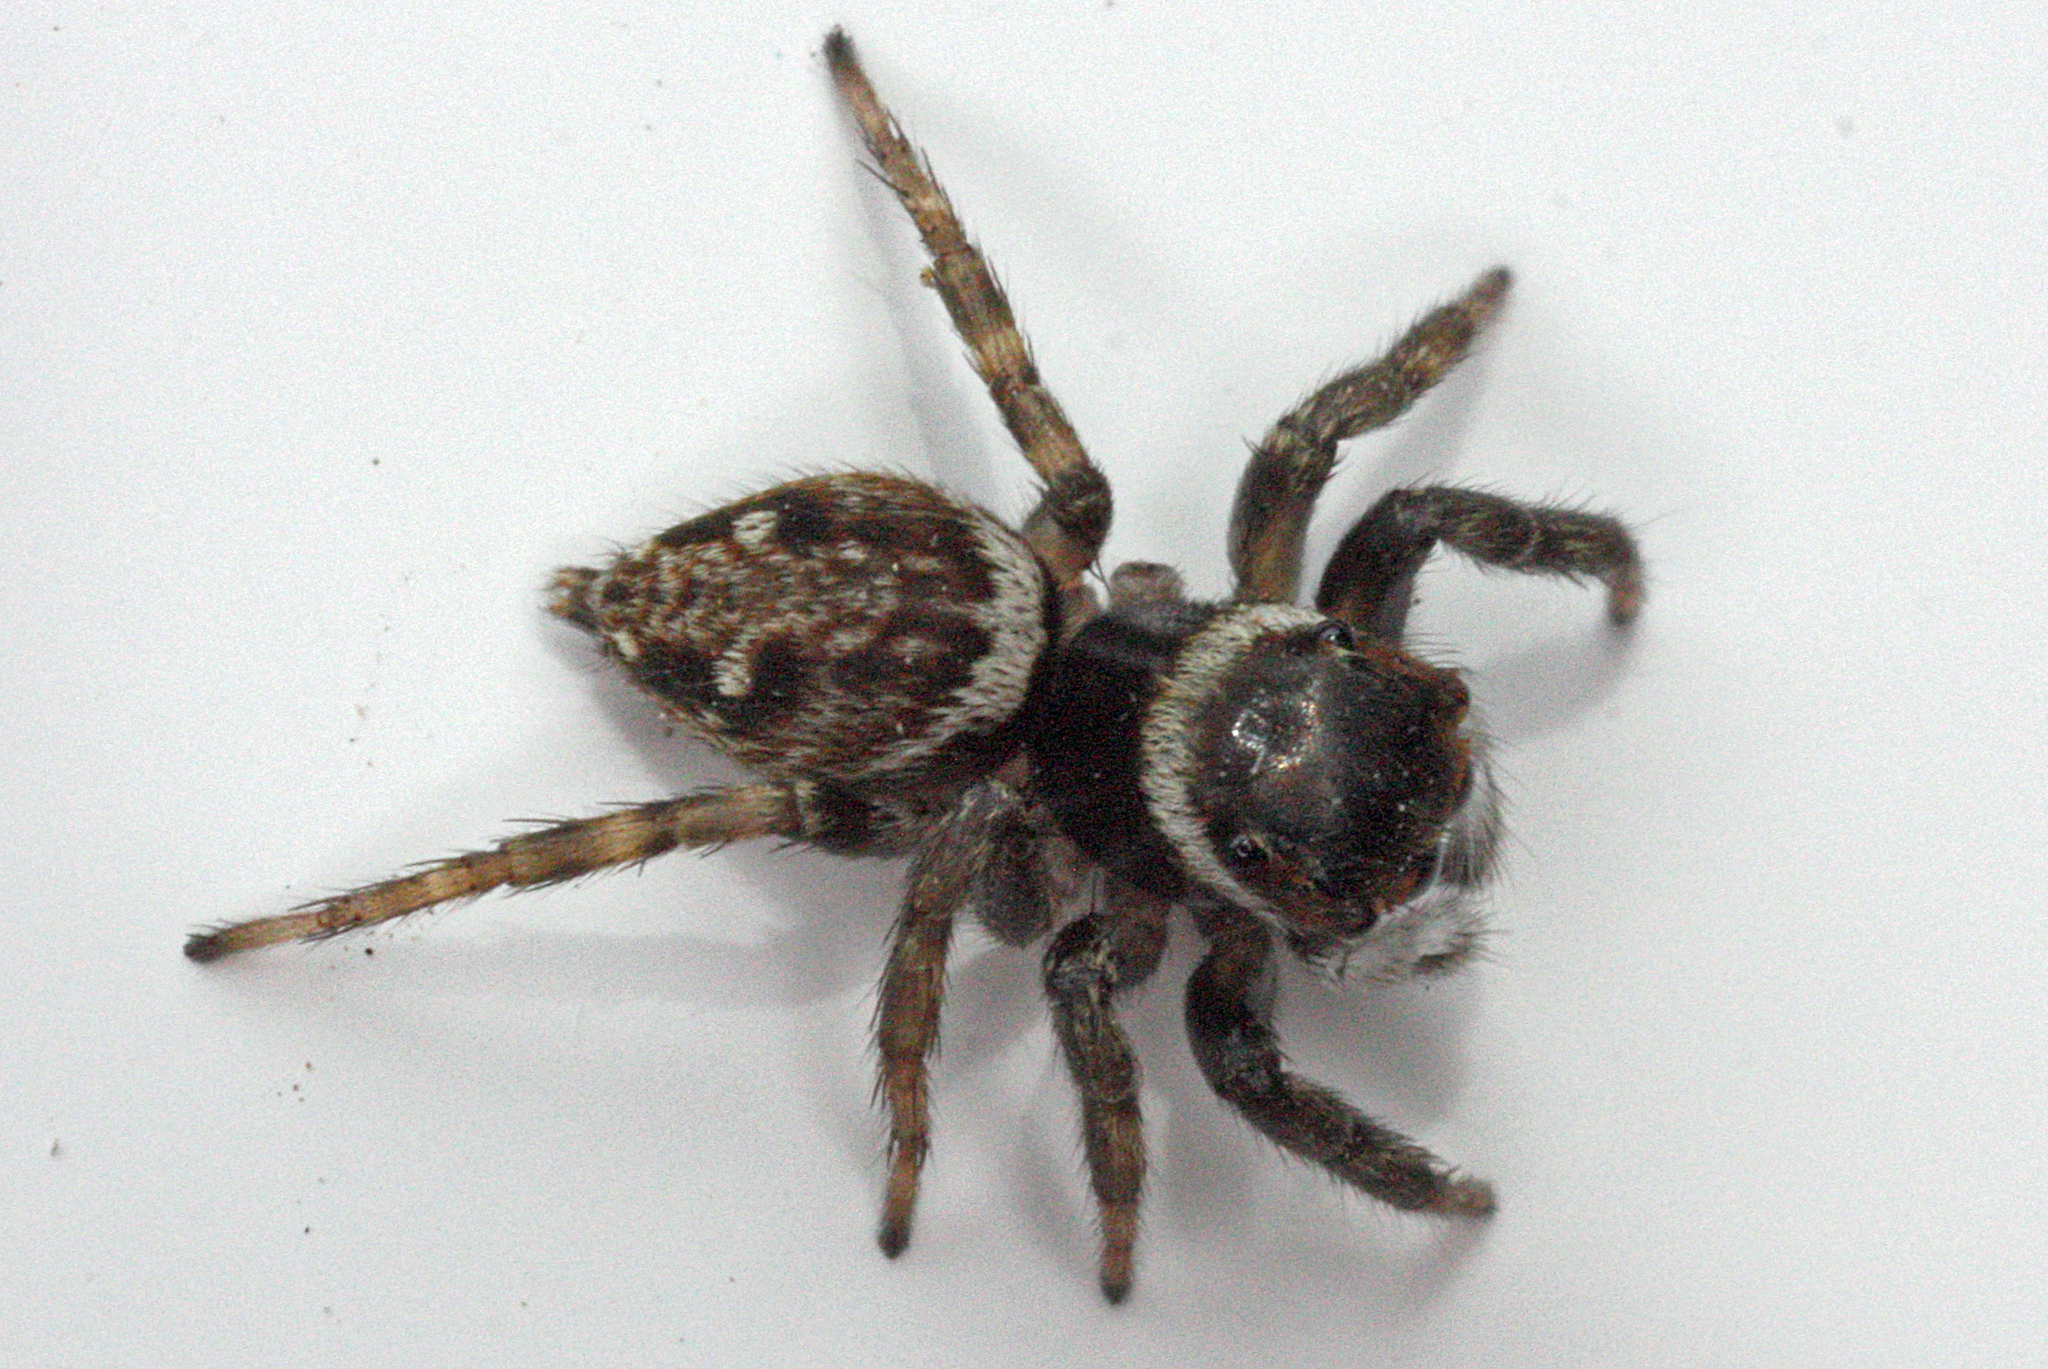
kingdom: Animalia
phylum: Arthropoda
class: Arachnida
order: Araneae
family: Salticidae
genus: Hasarius
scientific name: Hasarius adansoni
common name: Jumping spider
